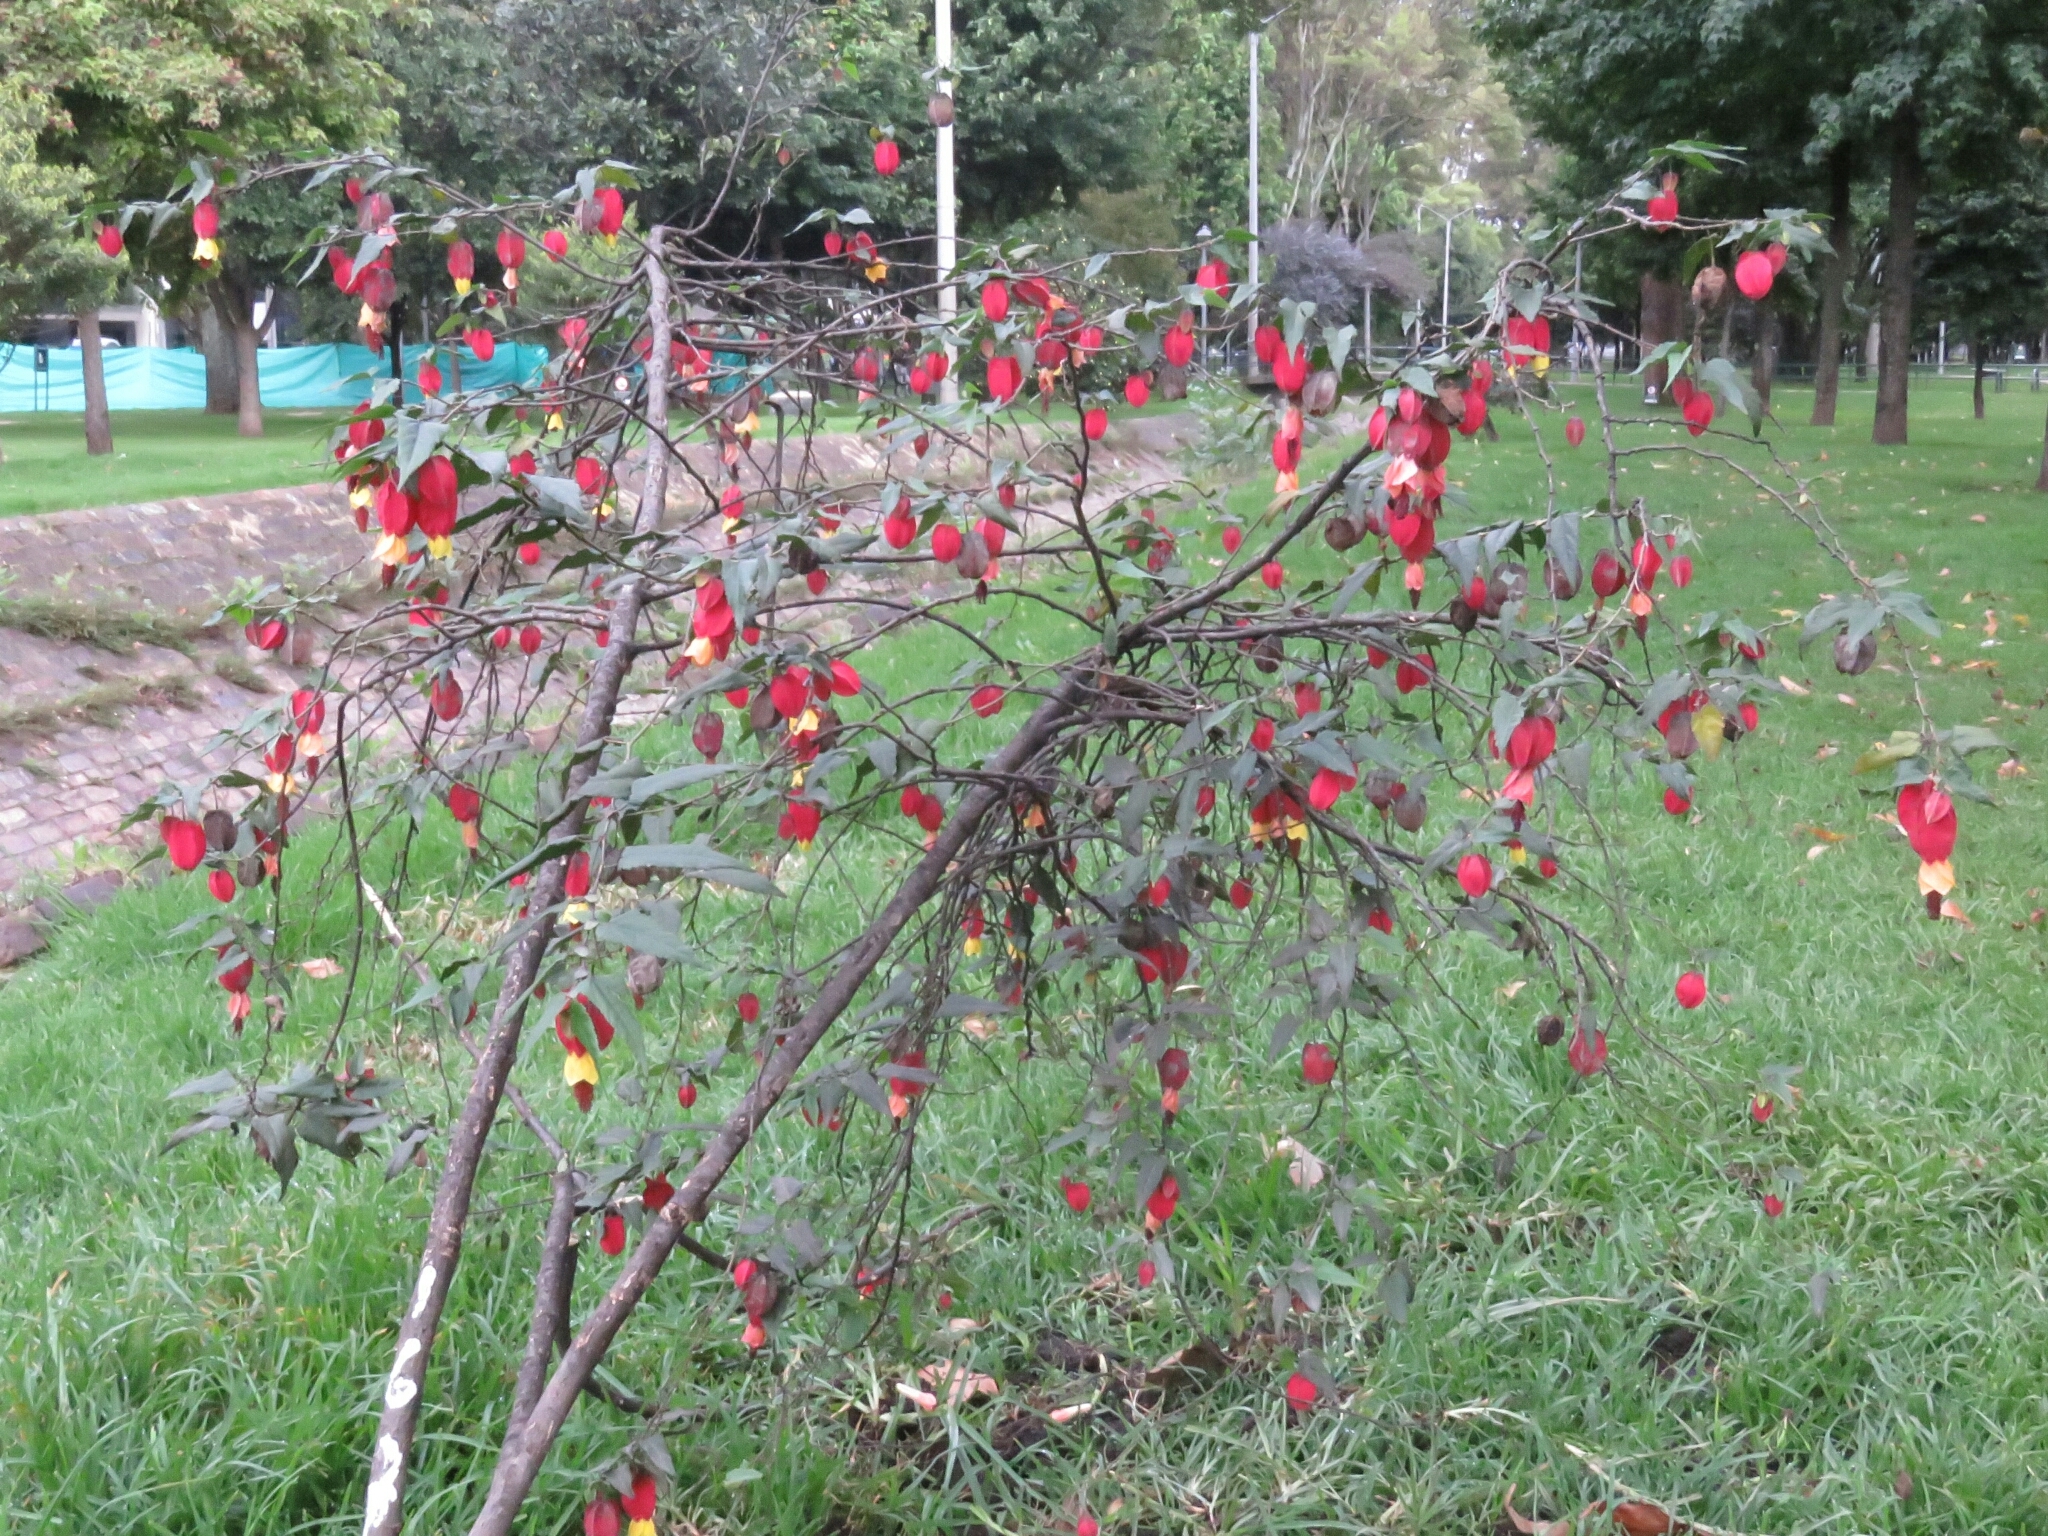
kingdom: Plantae
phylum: Tracheophyta
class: Magnoliopsida
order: Malvales
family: Malvaceae
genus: Callianthe
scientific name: Callianthe megapotamica
